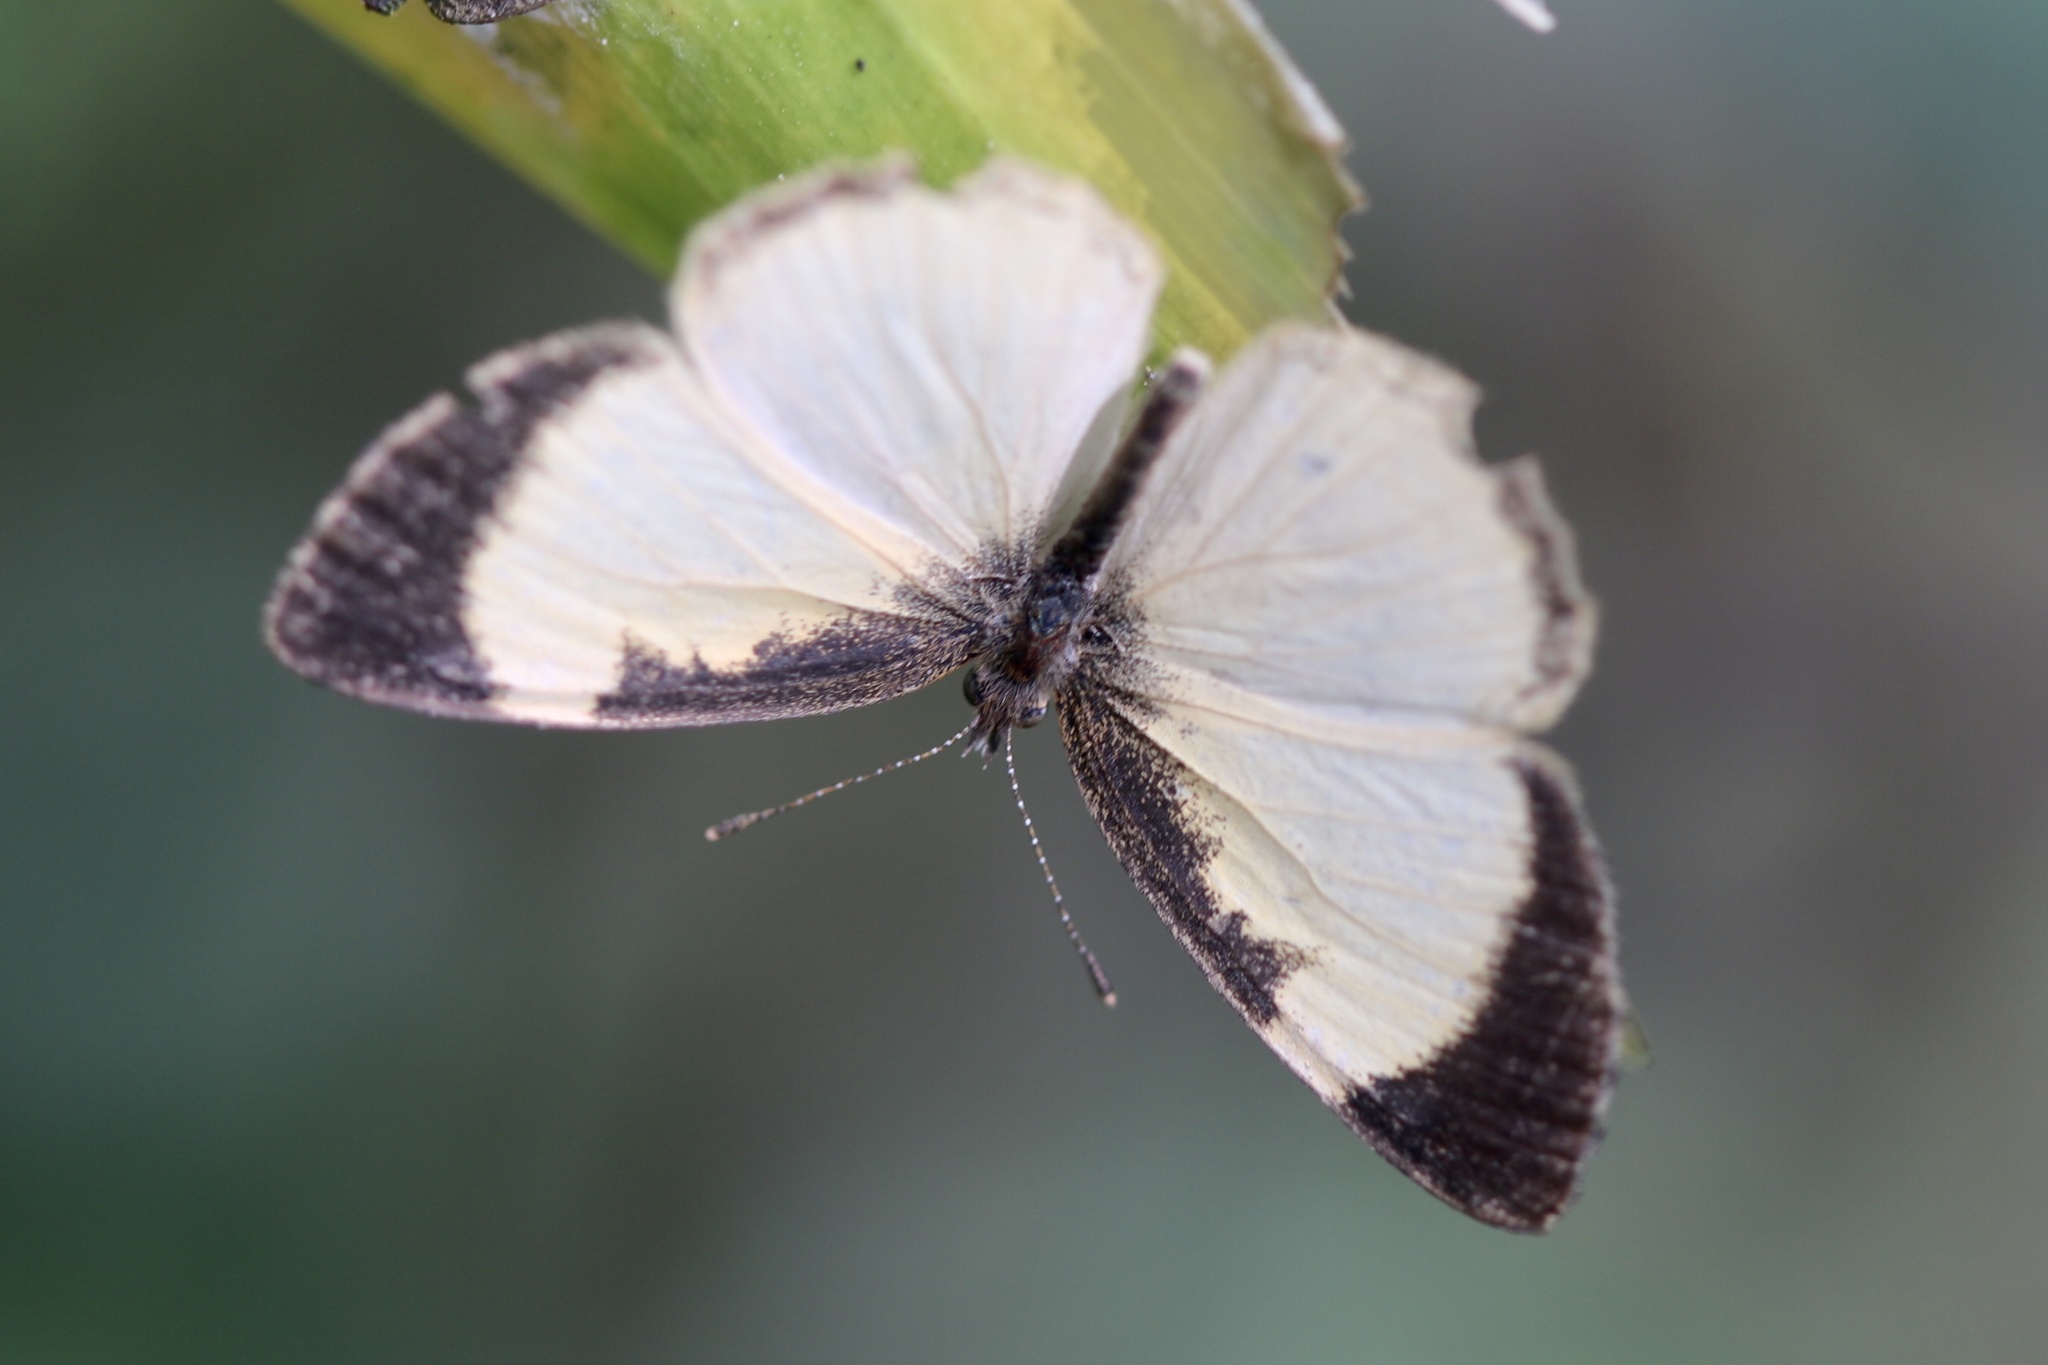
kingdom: Animalia
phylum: Arthropoda
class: Insecta
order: Lepidoptera
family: Nymphalidae
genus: Tegosa
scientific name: Tegosa flavida
